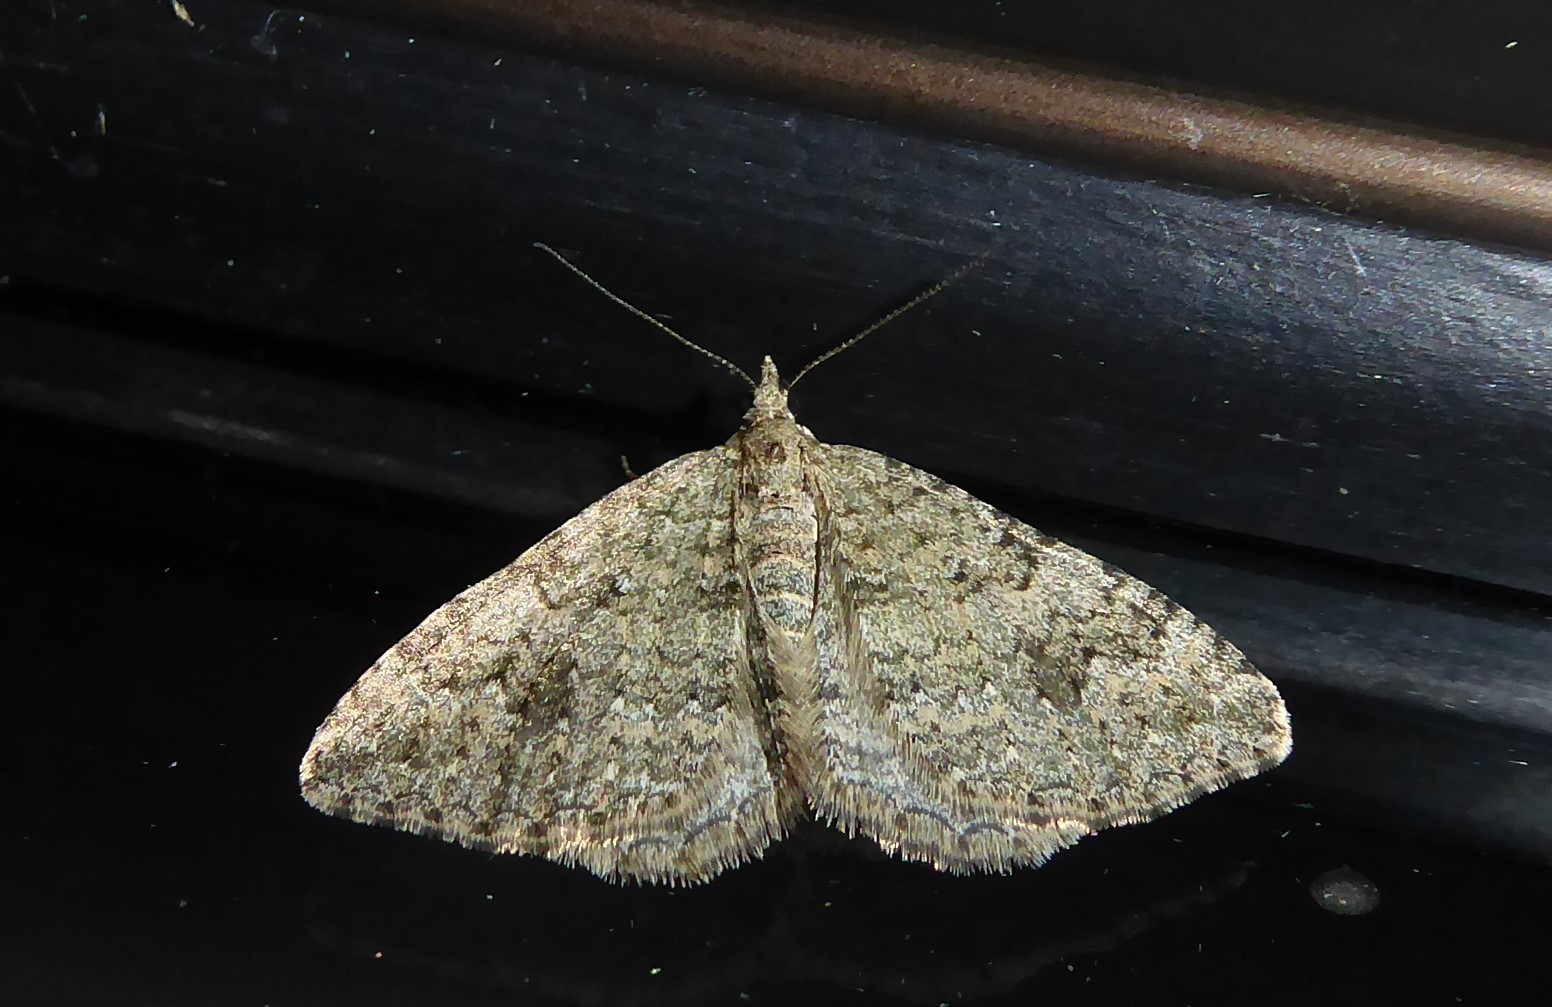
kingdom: Animalia
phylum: Arthropoda
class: Insecta
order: Lepidoptera
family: Geometridae
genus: Helastia
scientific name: Helastia corcularia
